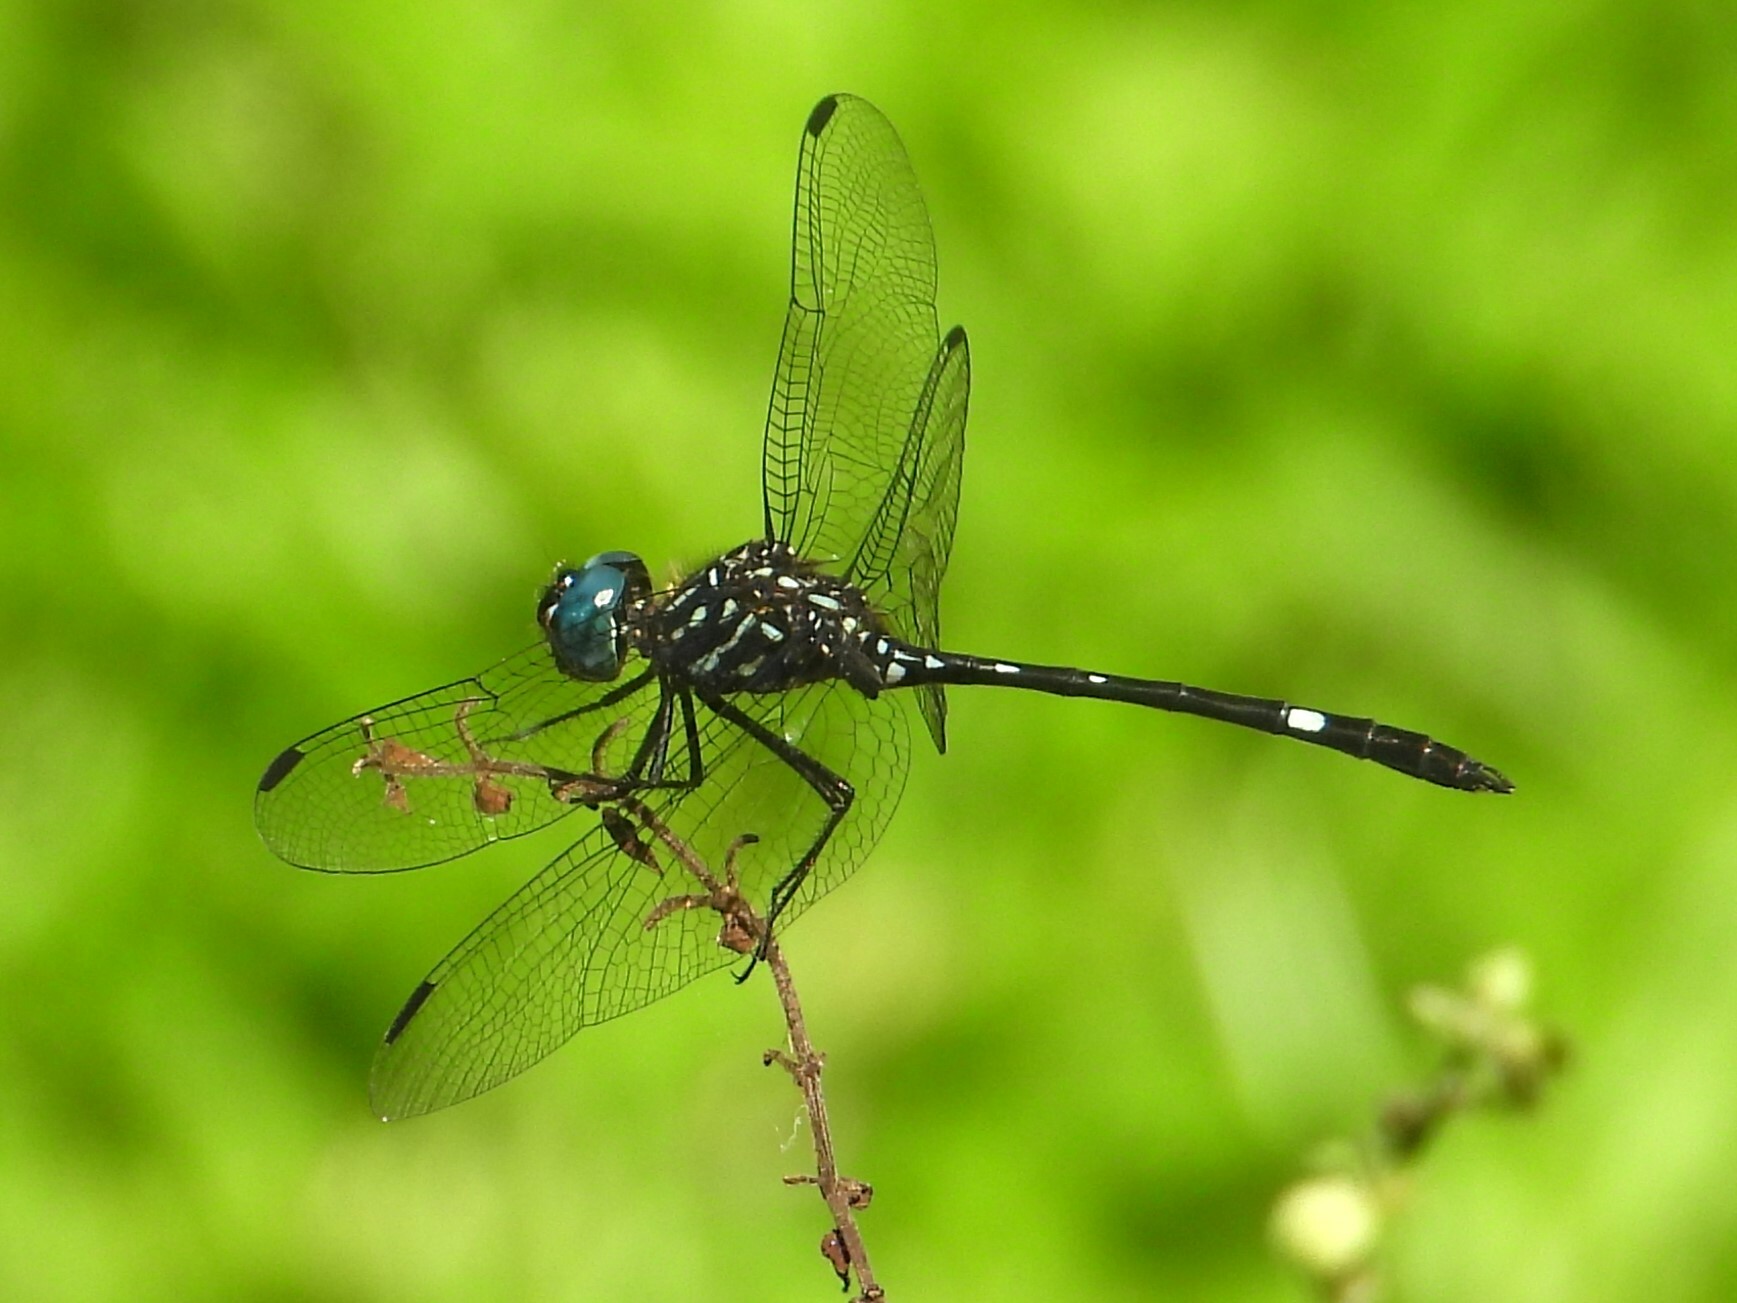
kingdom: Animalia
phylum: Arthropoda
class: Insecta
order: Odonata
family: Libellulidae
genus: Dythemis
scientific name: Dythemis nigra
